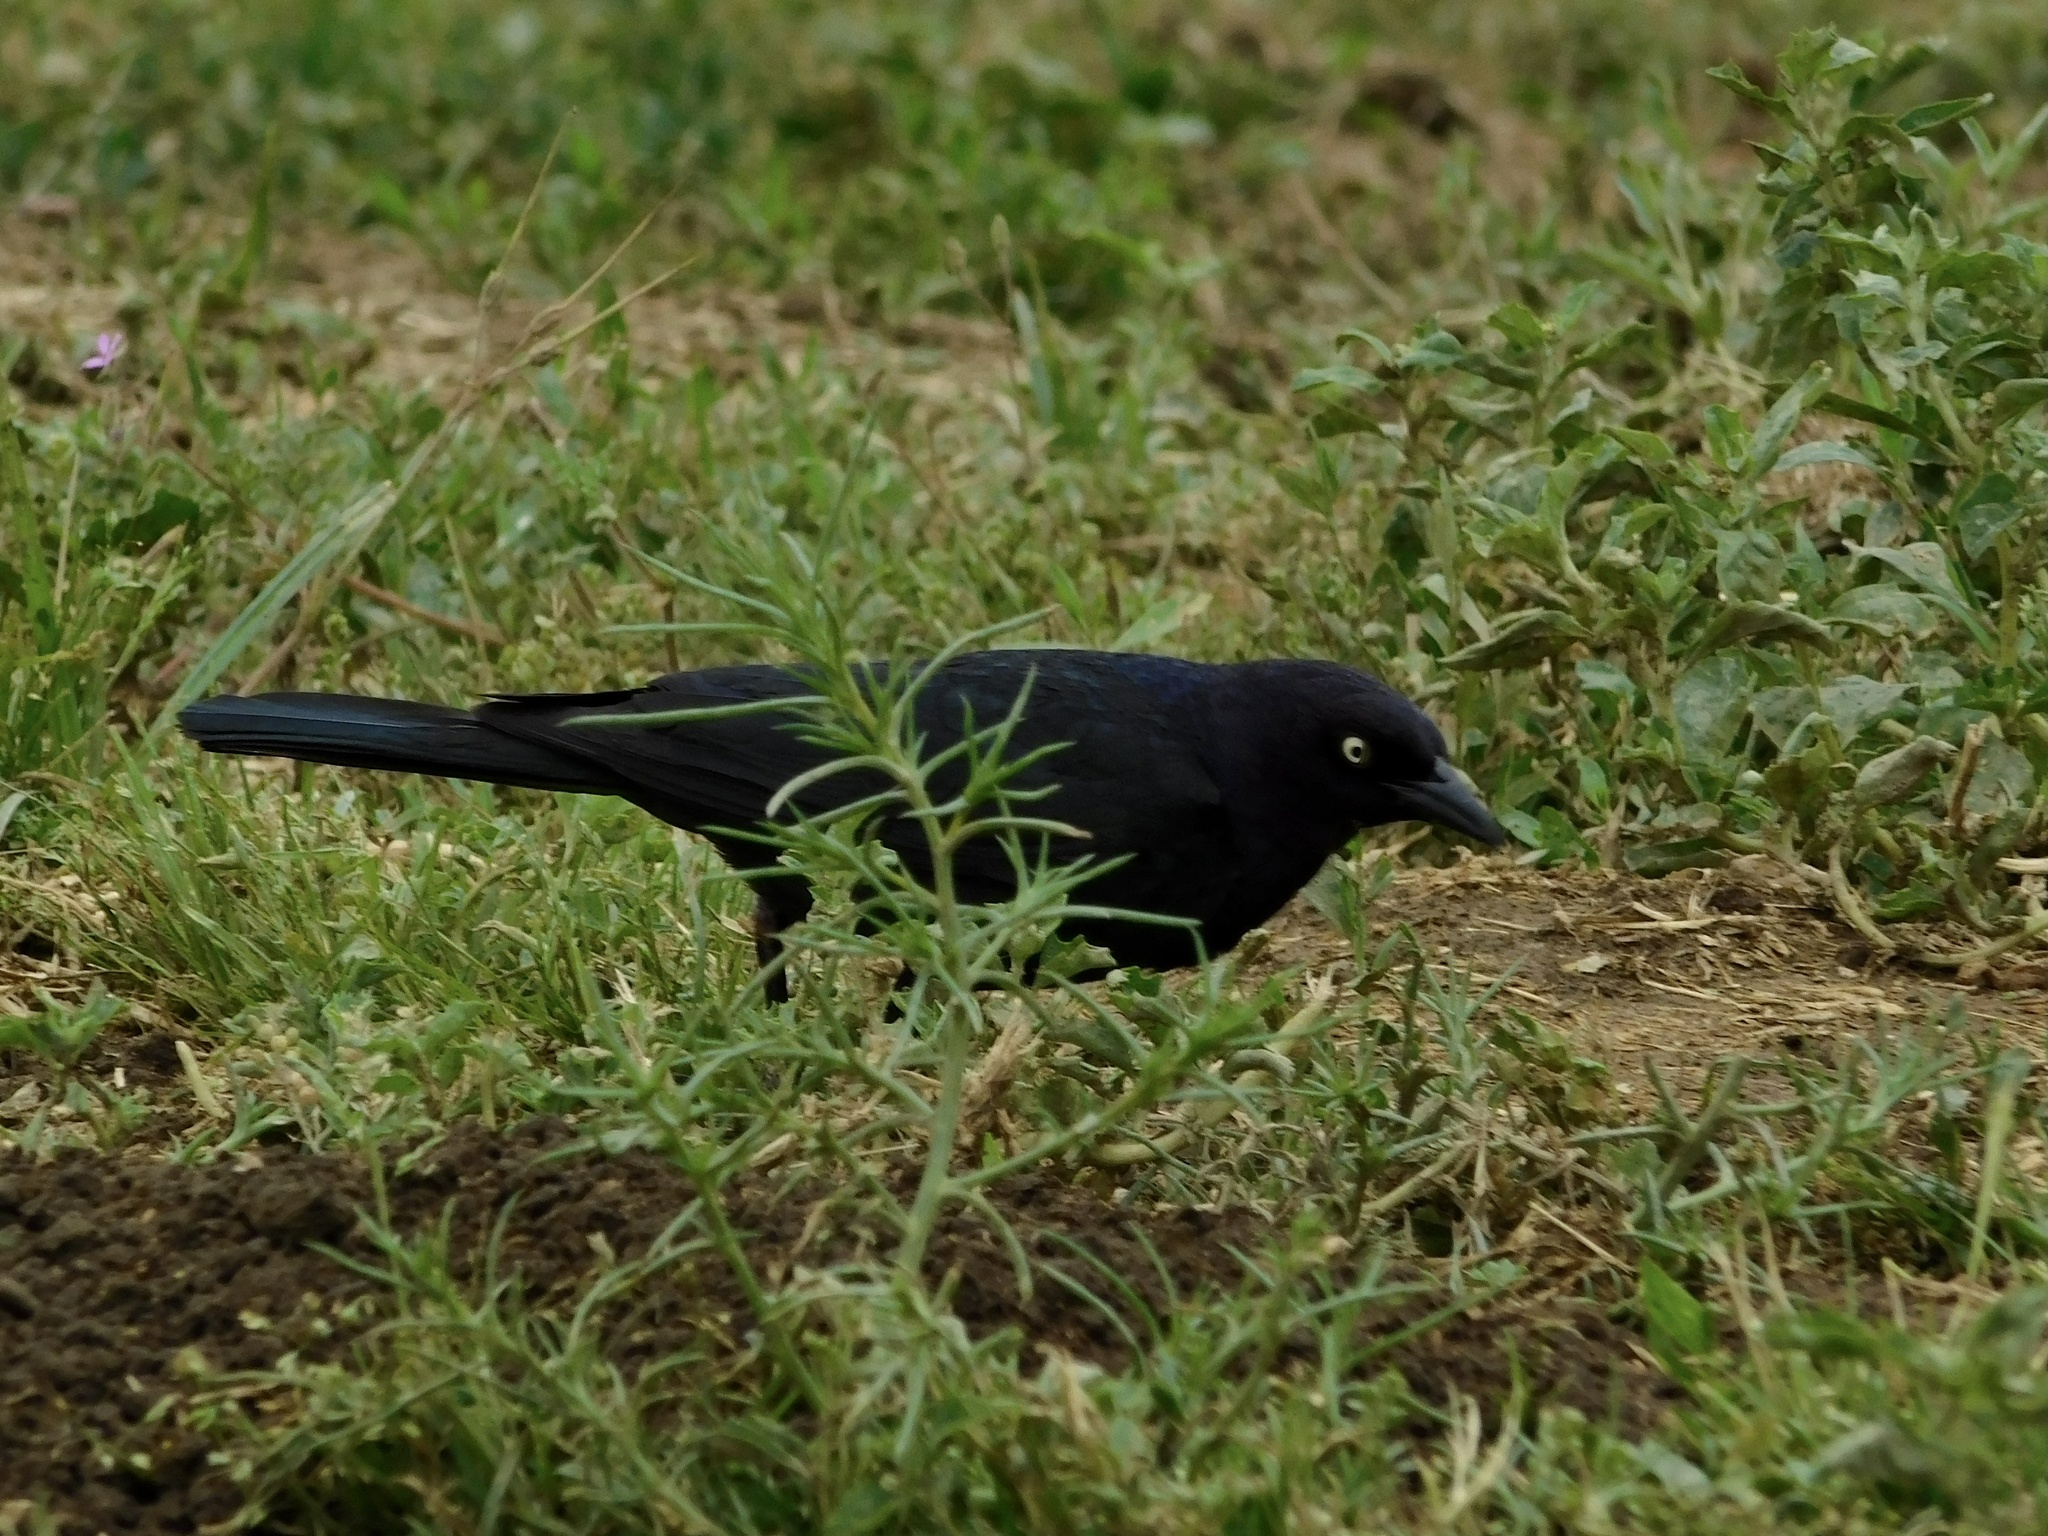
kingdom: Animalia
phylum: Chordata
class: Aves
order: Passeriformes
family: Icteridae
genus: Euphagus
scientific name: Euphagus cyanocephalus
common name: Brewer's blackbird
